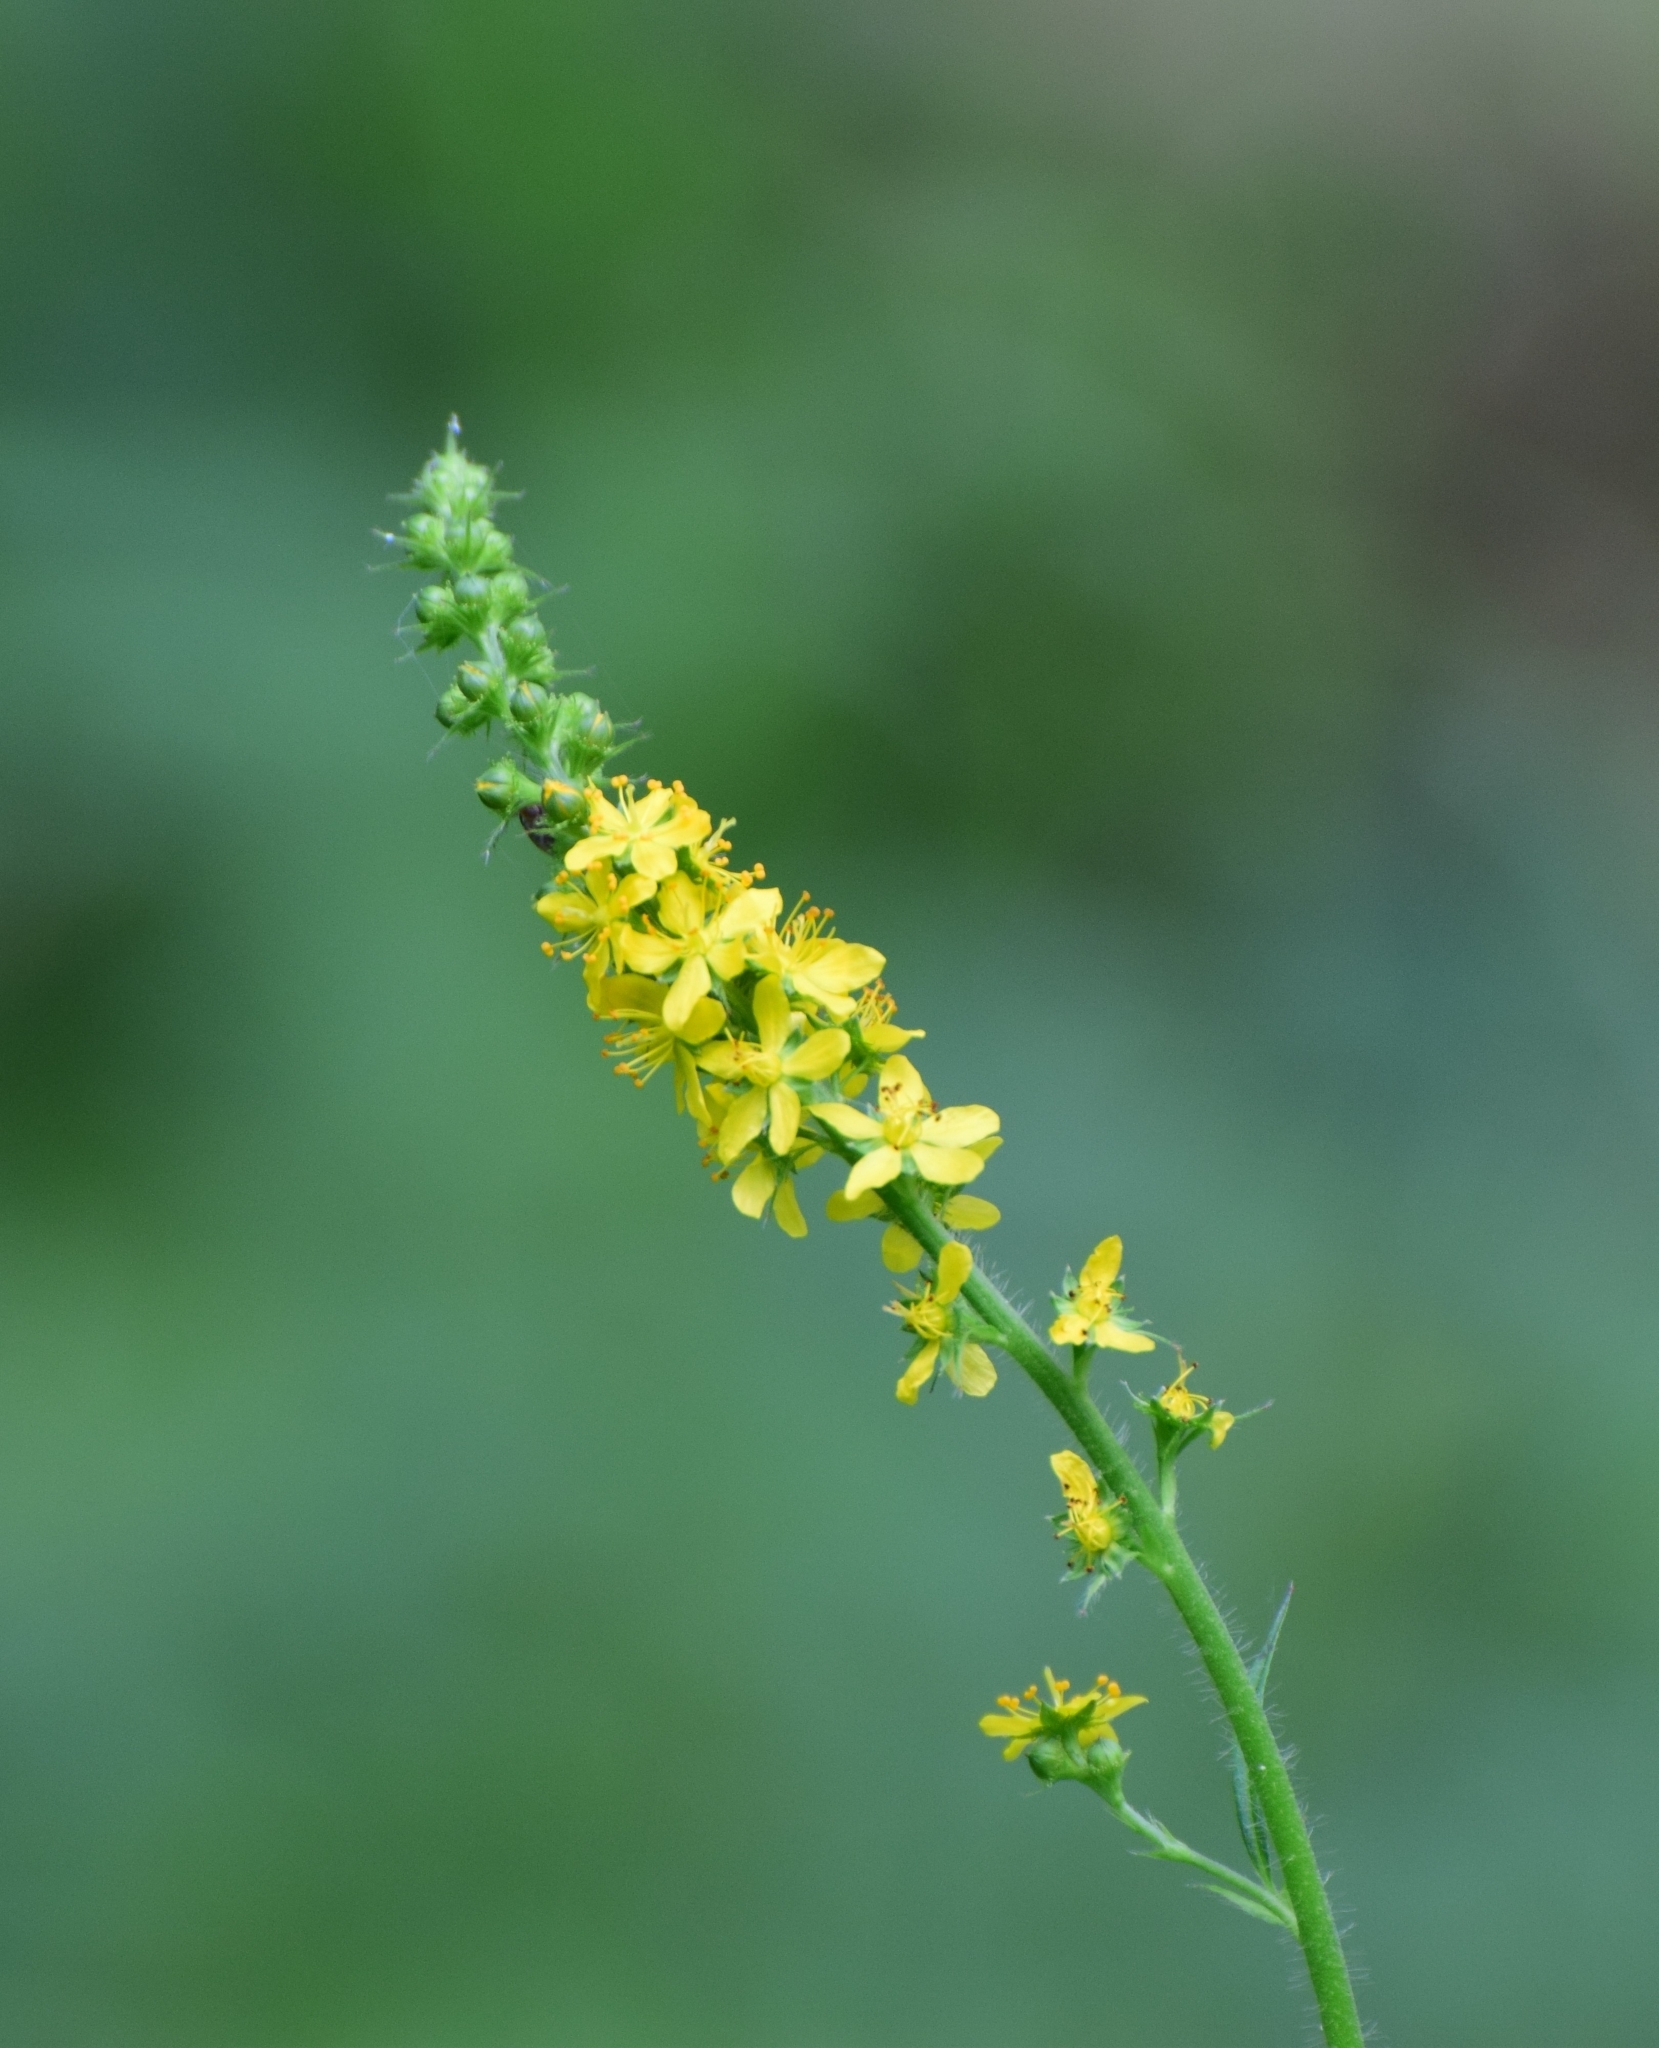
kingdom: Plantae
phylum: Tracheophyta
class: Magnoliopsida
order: Rosales
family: Rosaceae
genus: Agrimonia
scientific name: Agrimonia pilosa
